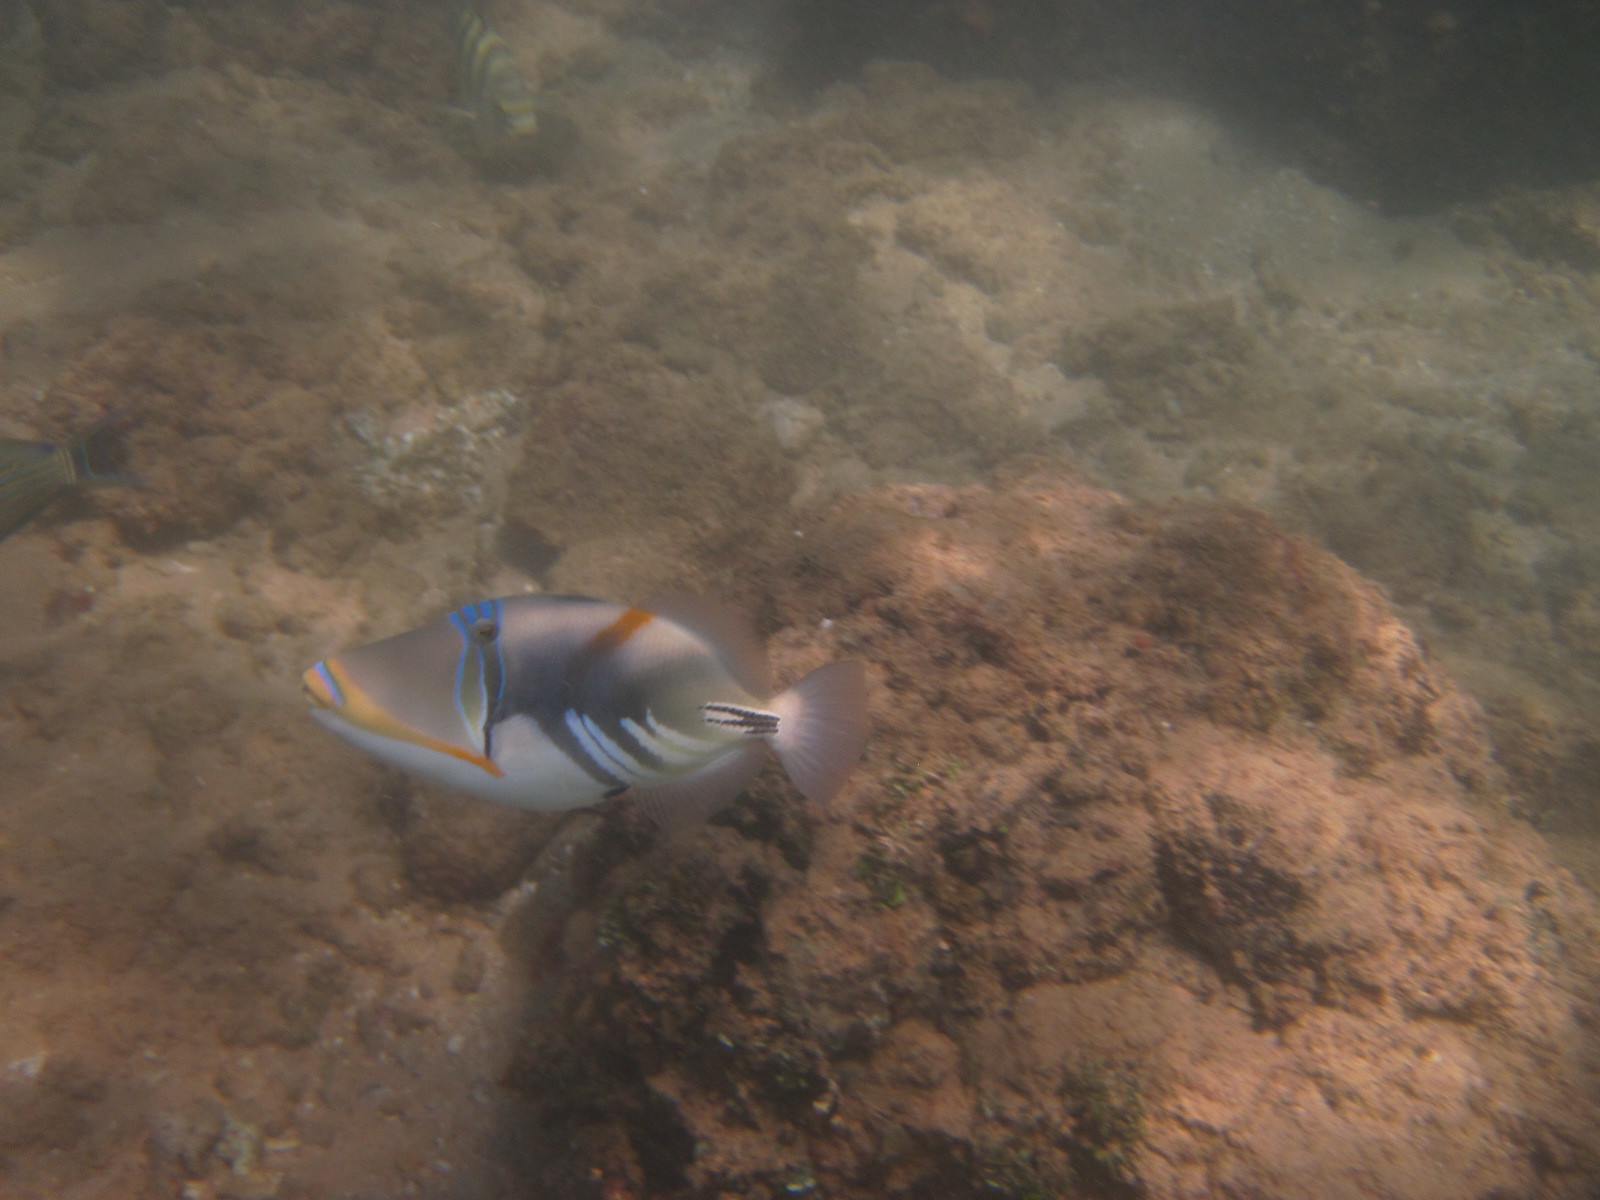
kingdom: Animalia
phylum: Chordata
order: Tetraodontiformes
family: Balistidae
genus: Rhinecanthus
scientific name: Rhinecanthus aculeatus
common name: White-banded triggerfish
